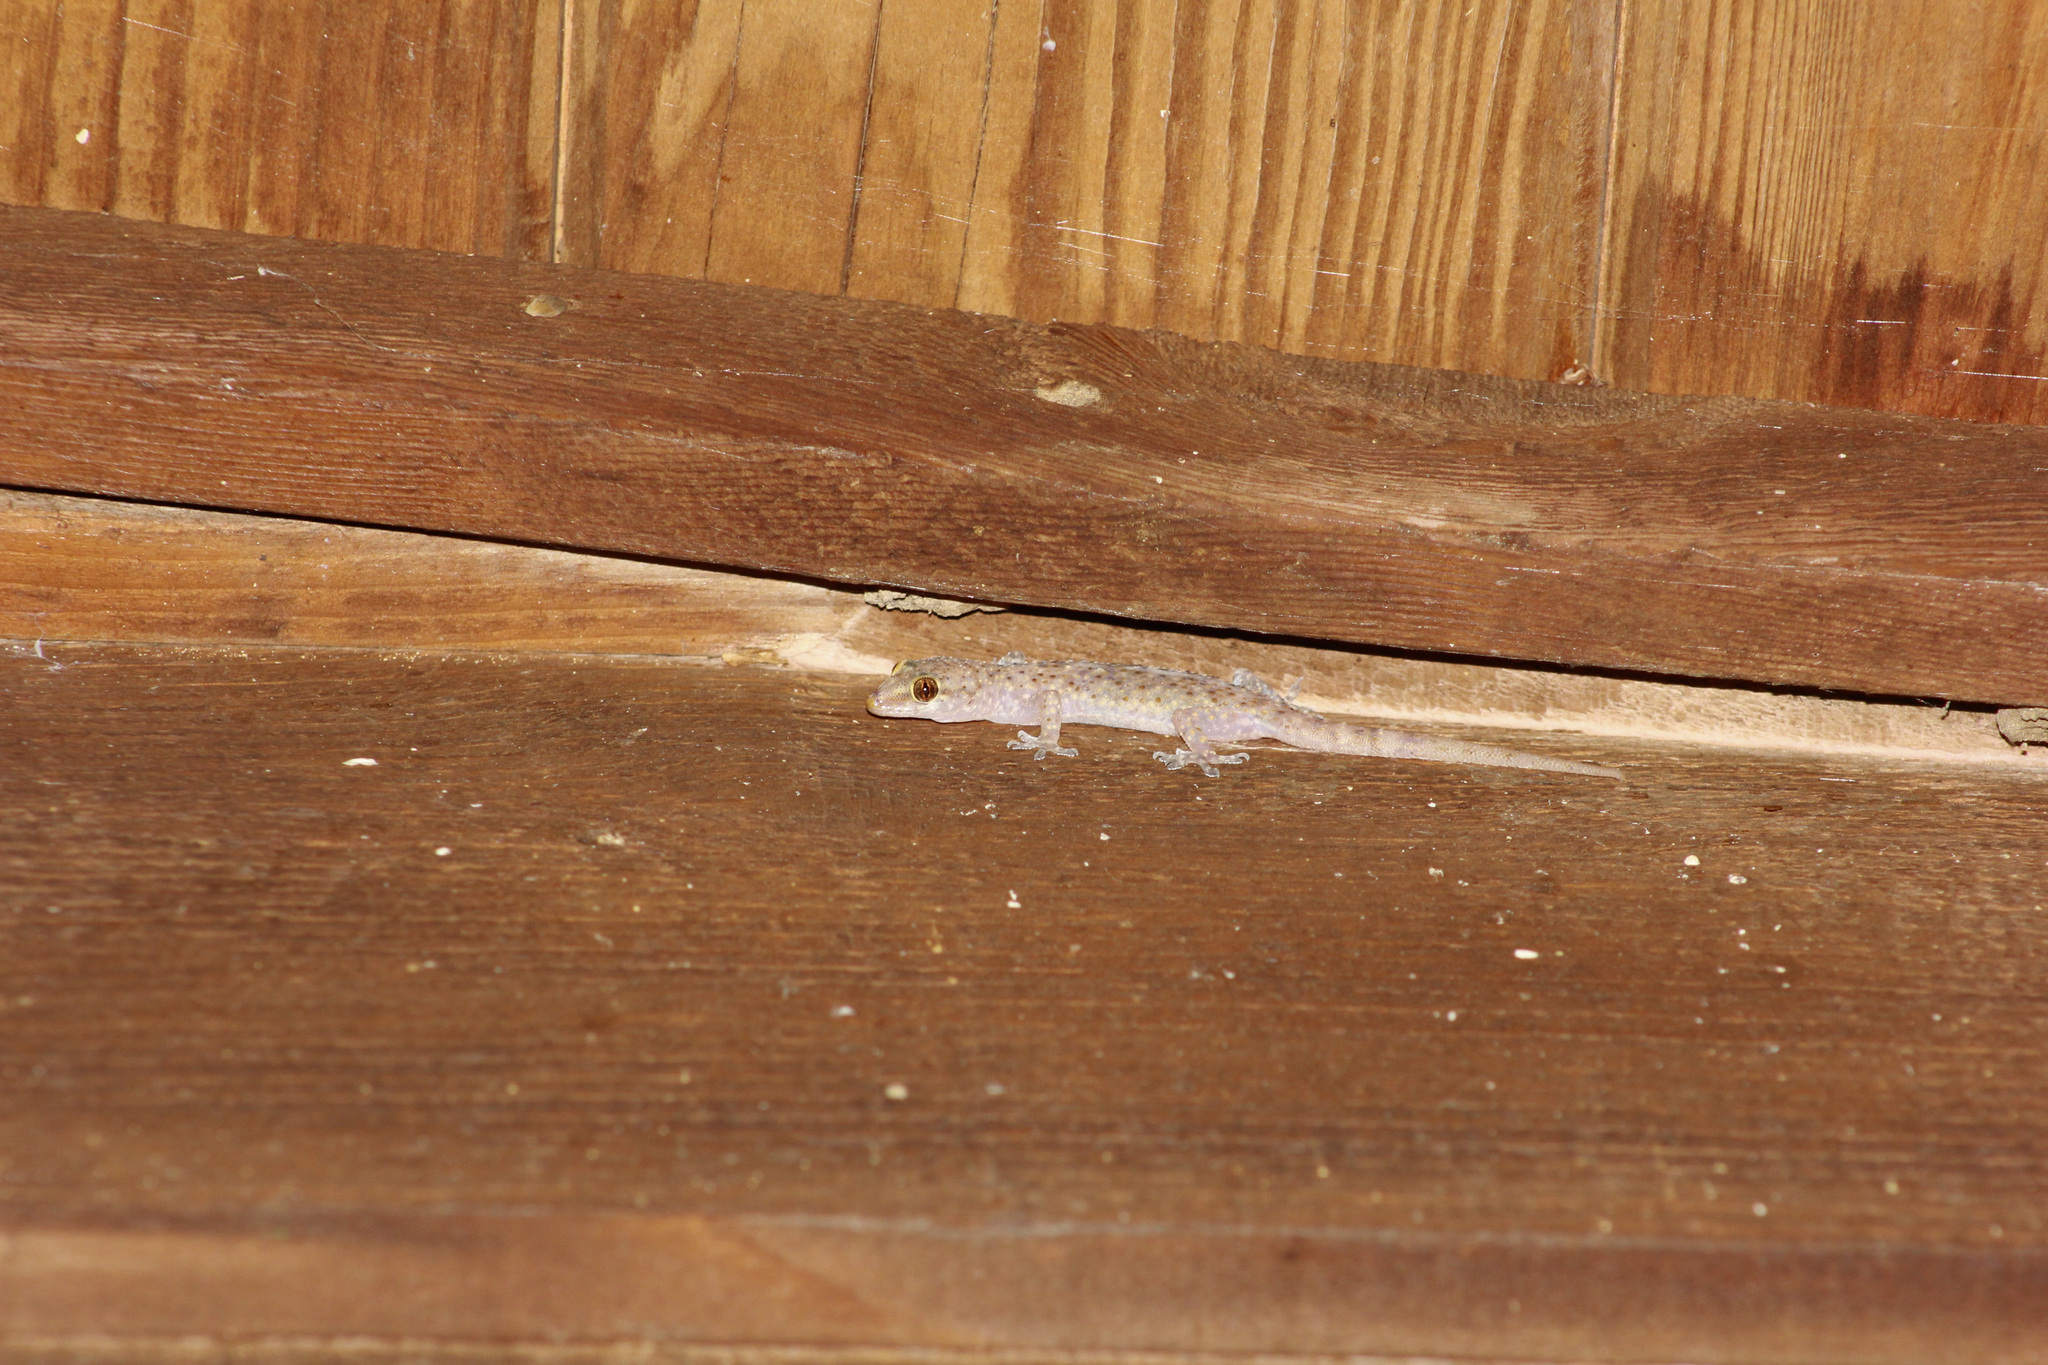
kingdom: Animalia
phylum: Chordata
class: Squamata
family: Gekkonidae
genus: Hemidactylus
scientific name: Hemidactylus turcicus
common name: Turkish gecko
